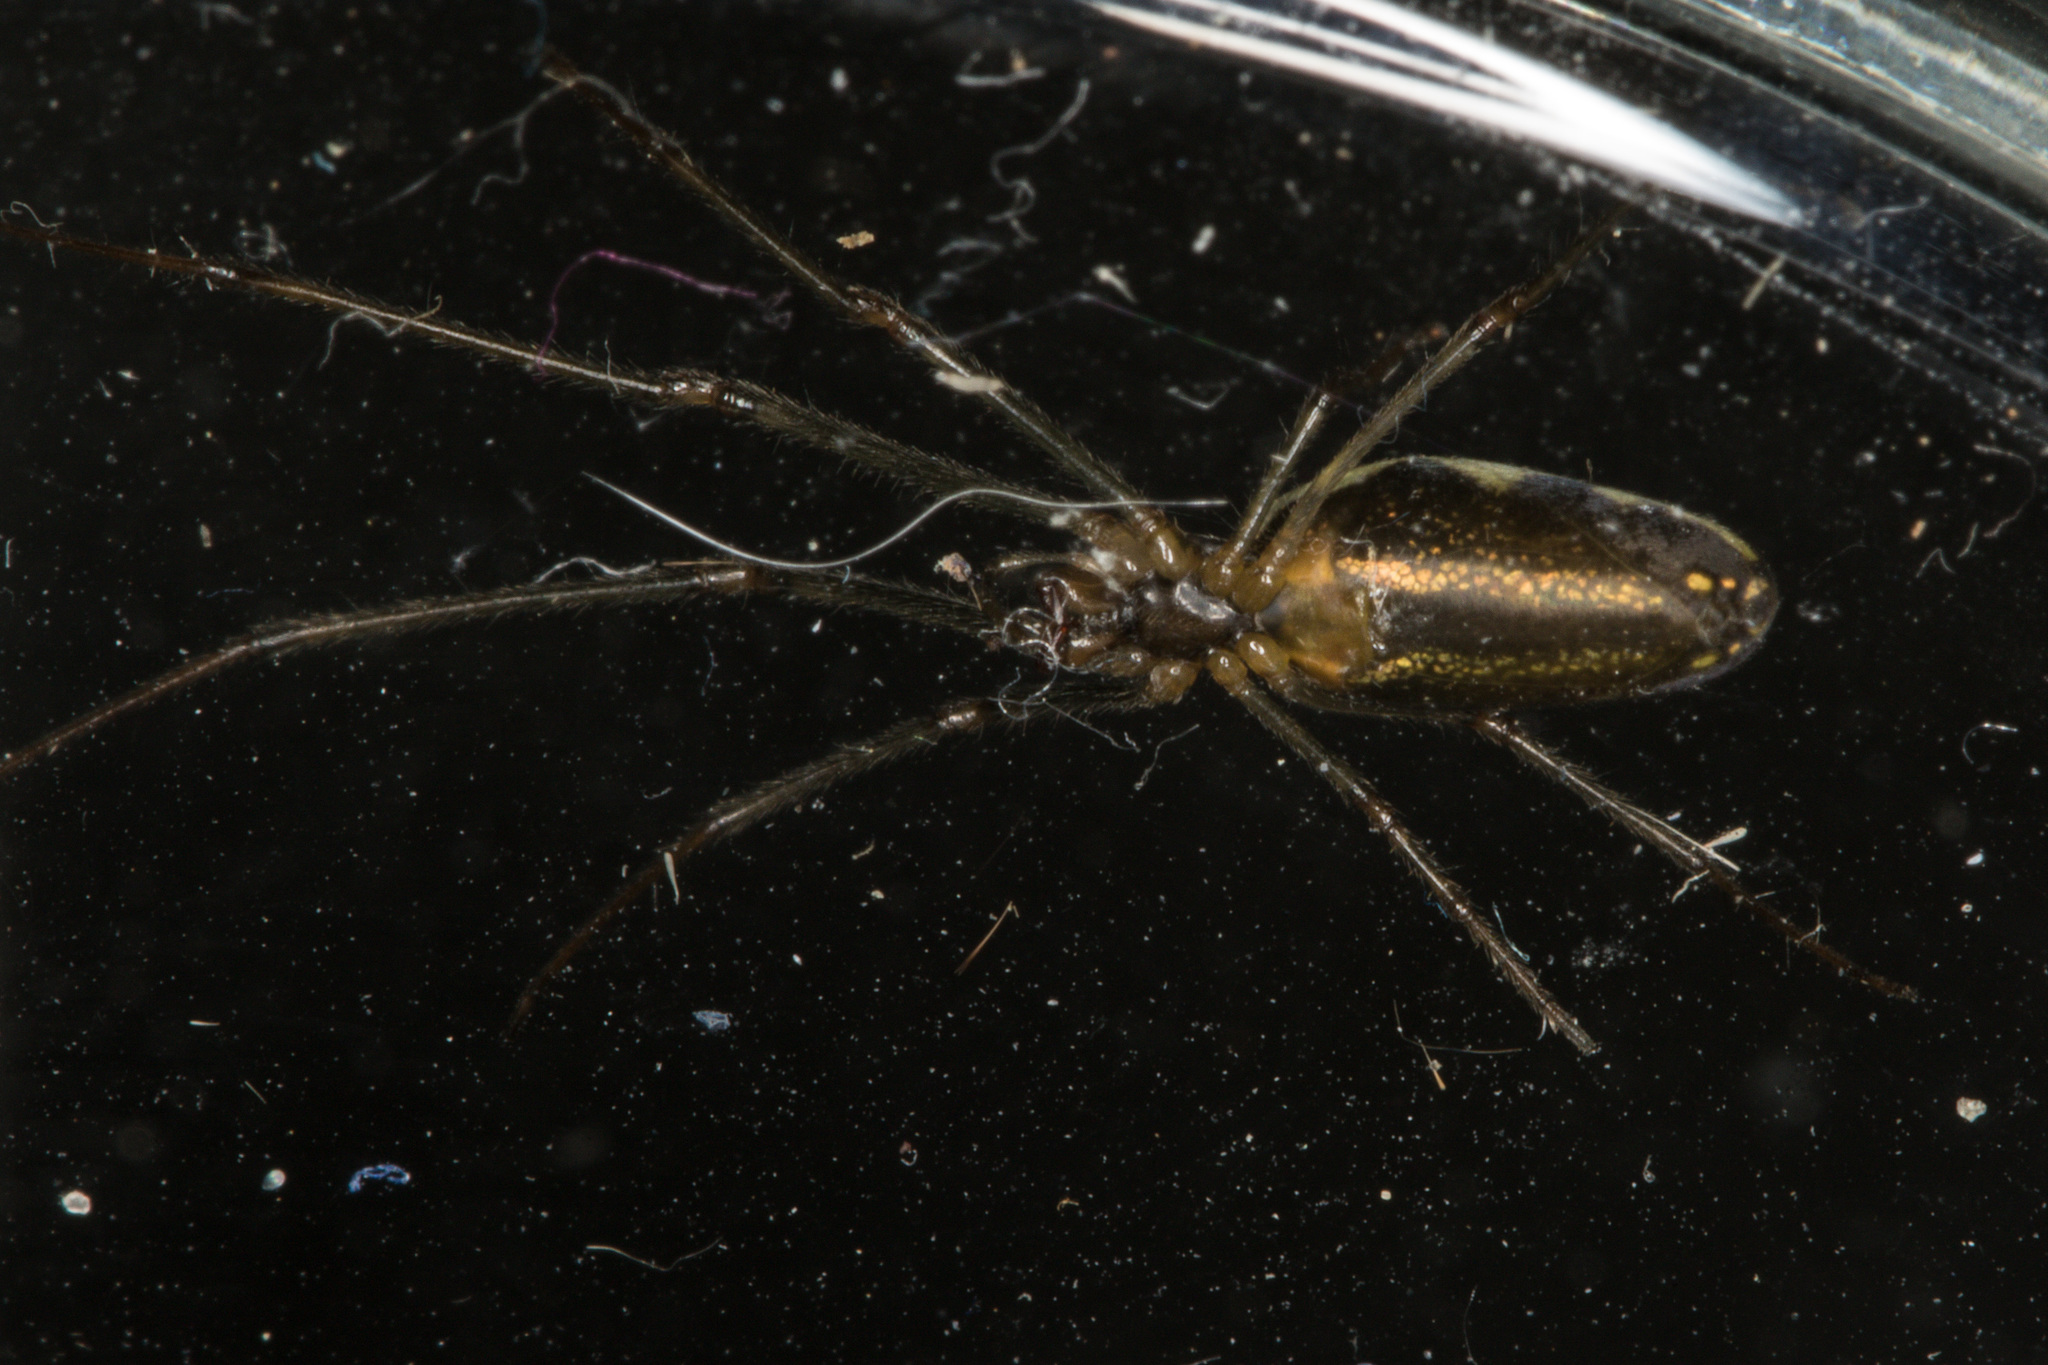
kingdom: Animalia
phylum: Arthropoda
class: Arachnida
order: Araneae
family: Tetragnathidae
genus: Tetragnatha
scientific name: Tetragnatha montana
